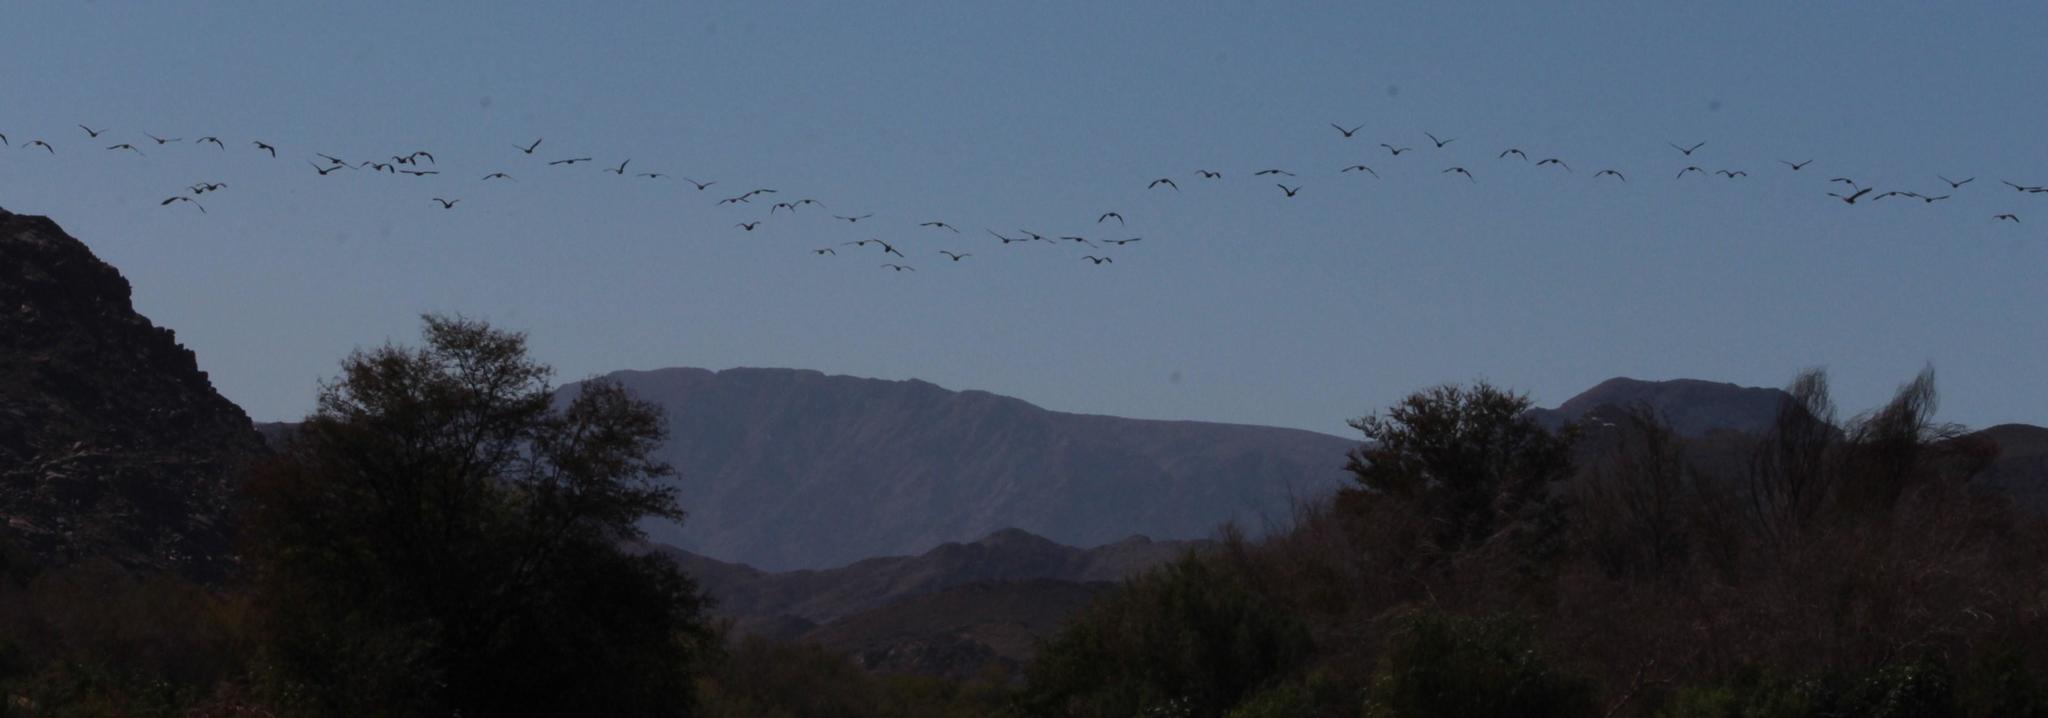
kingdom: Animalia
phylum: Chordata
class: Aves
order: Suliformes
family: Phalacrocoracidae
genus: Phalacrocorax
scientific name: Phalacrocorax carbo
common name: Great cormorant
